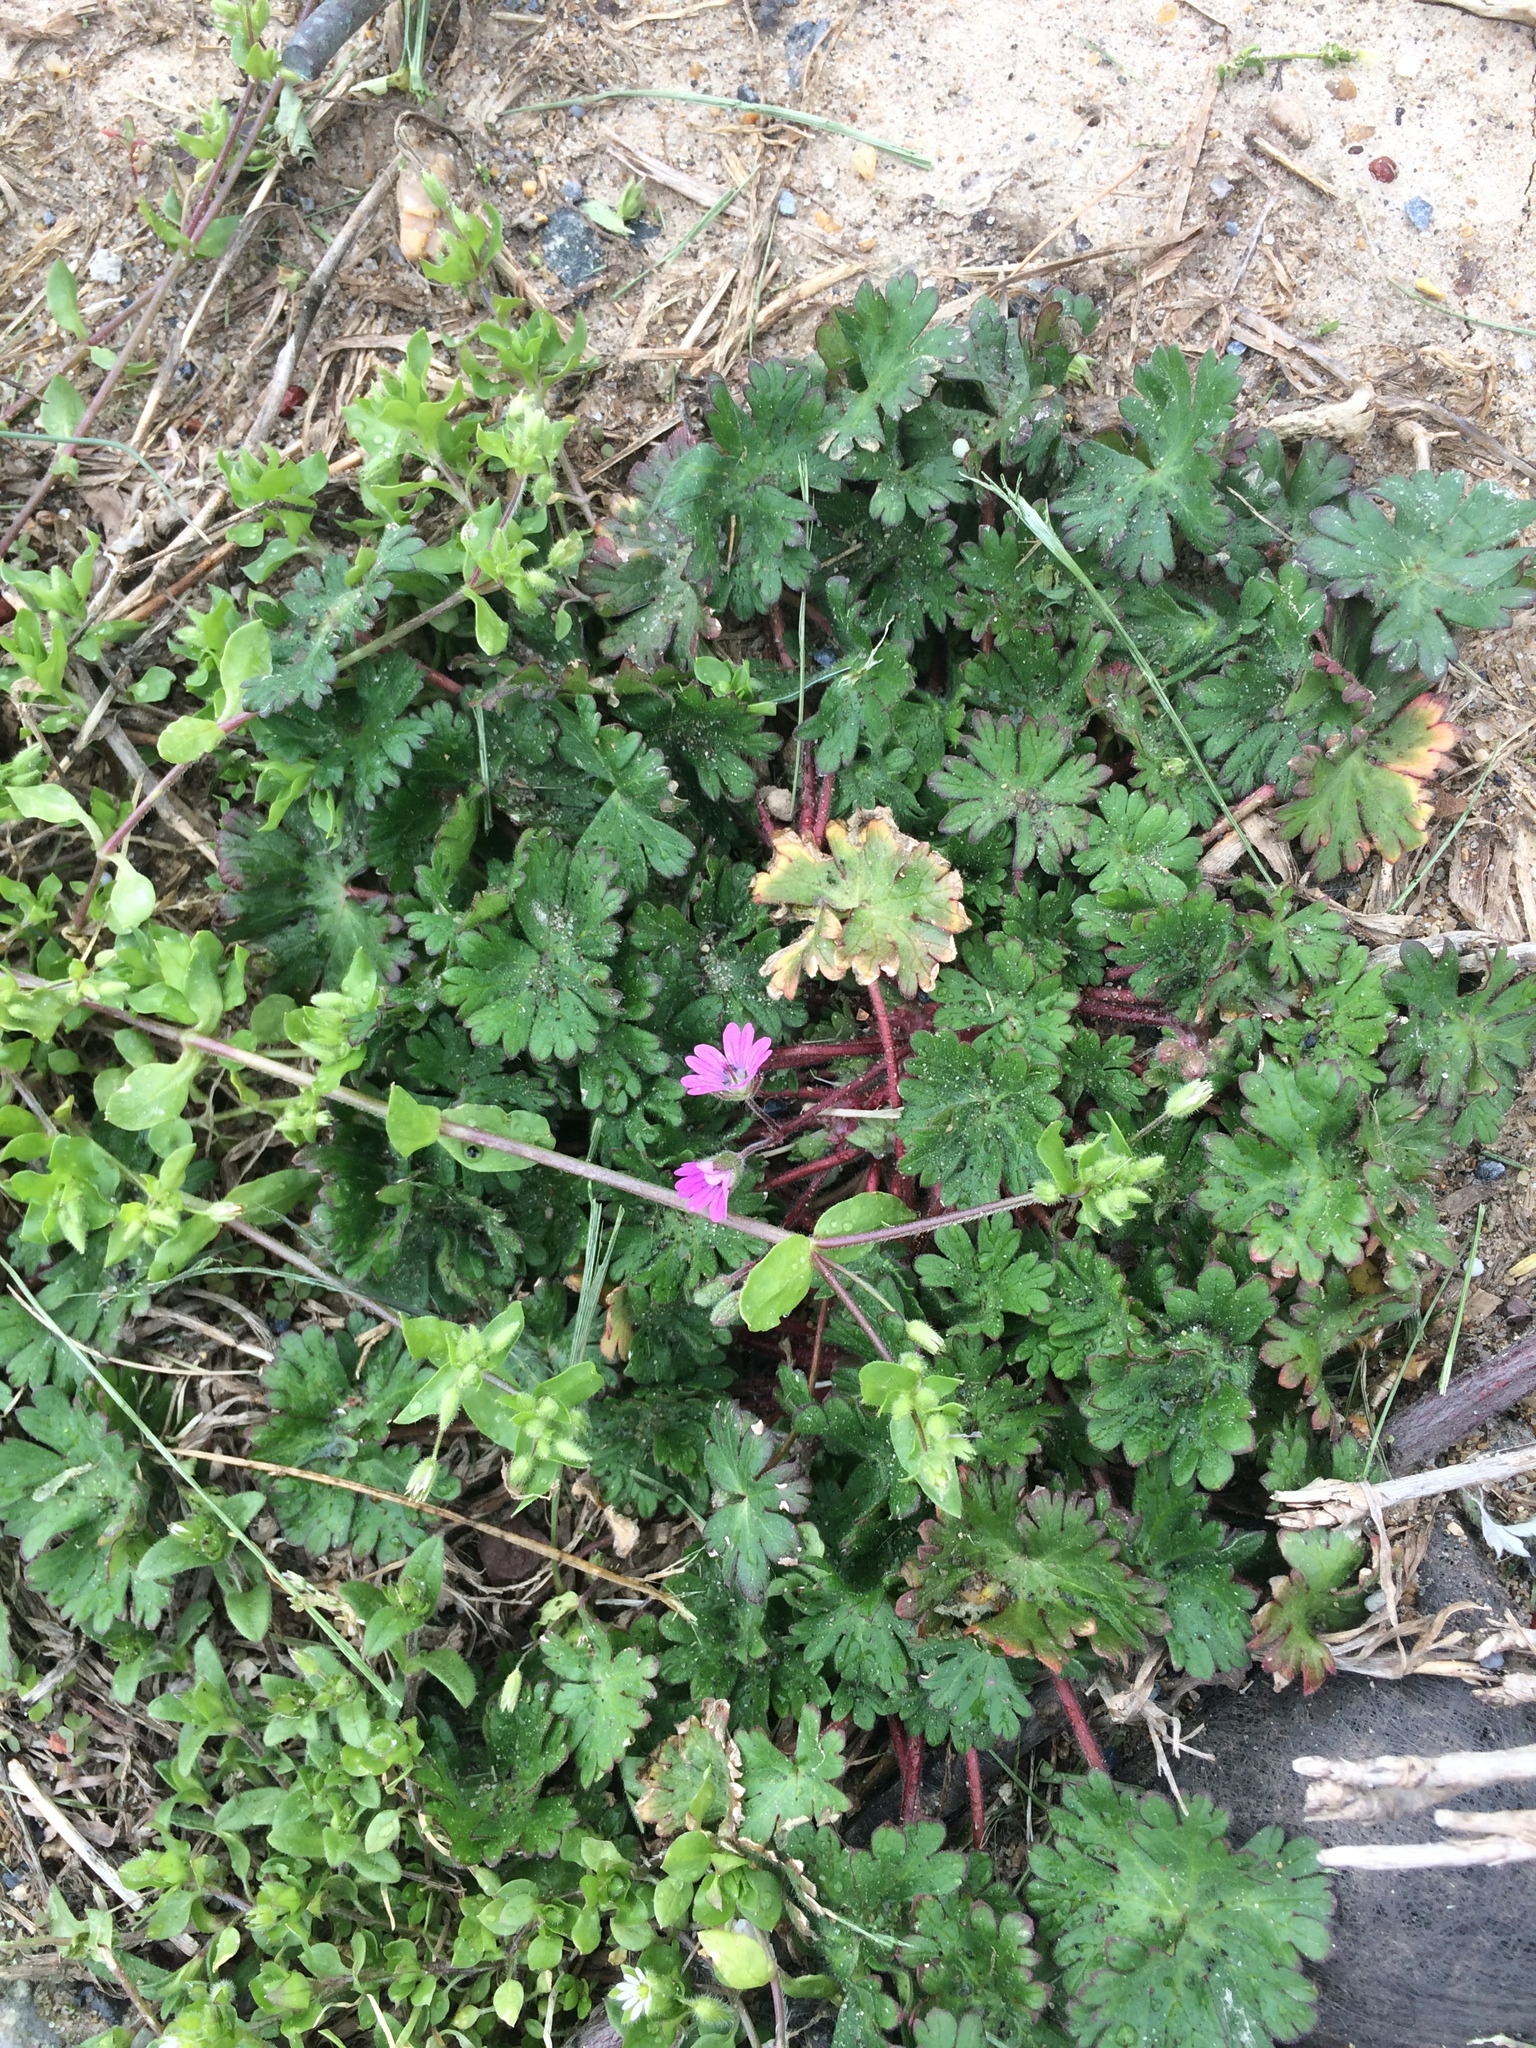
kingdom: Plantae
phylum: Tracheophyta
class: Magnoliopsida
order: Geraniales
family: Geraniaceae
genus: Geranium
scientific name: Geranium molle
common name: Dove's-foot crane's-bill
